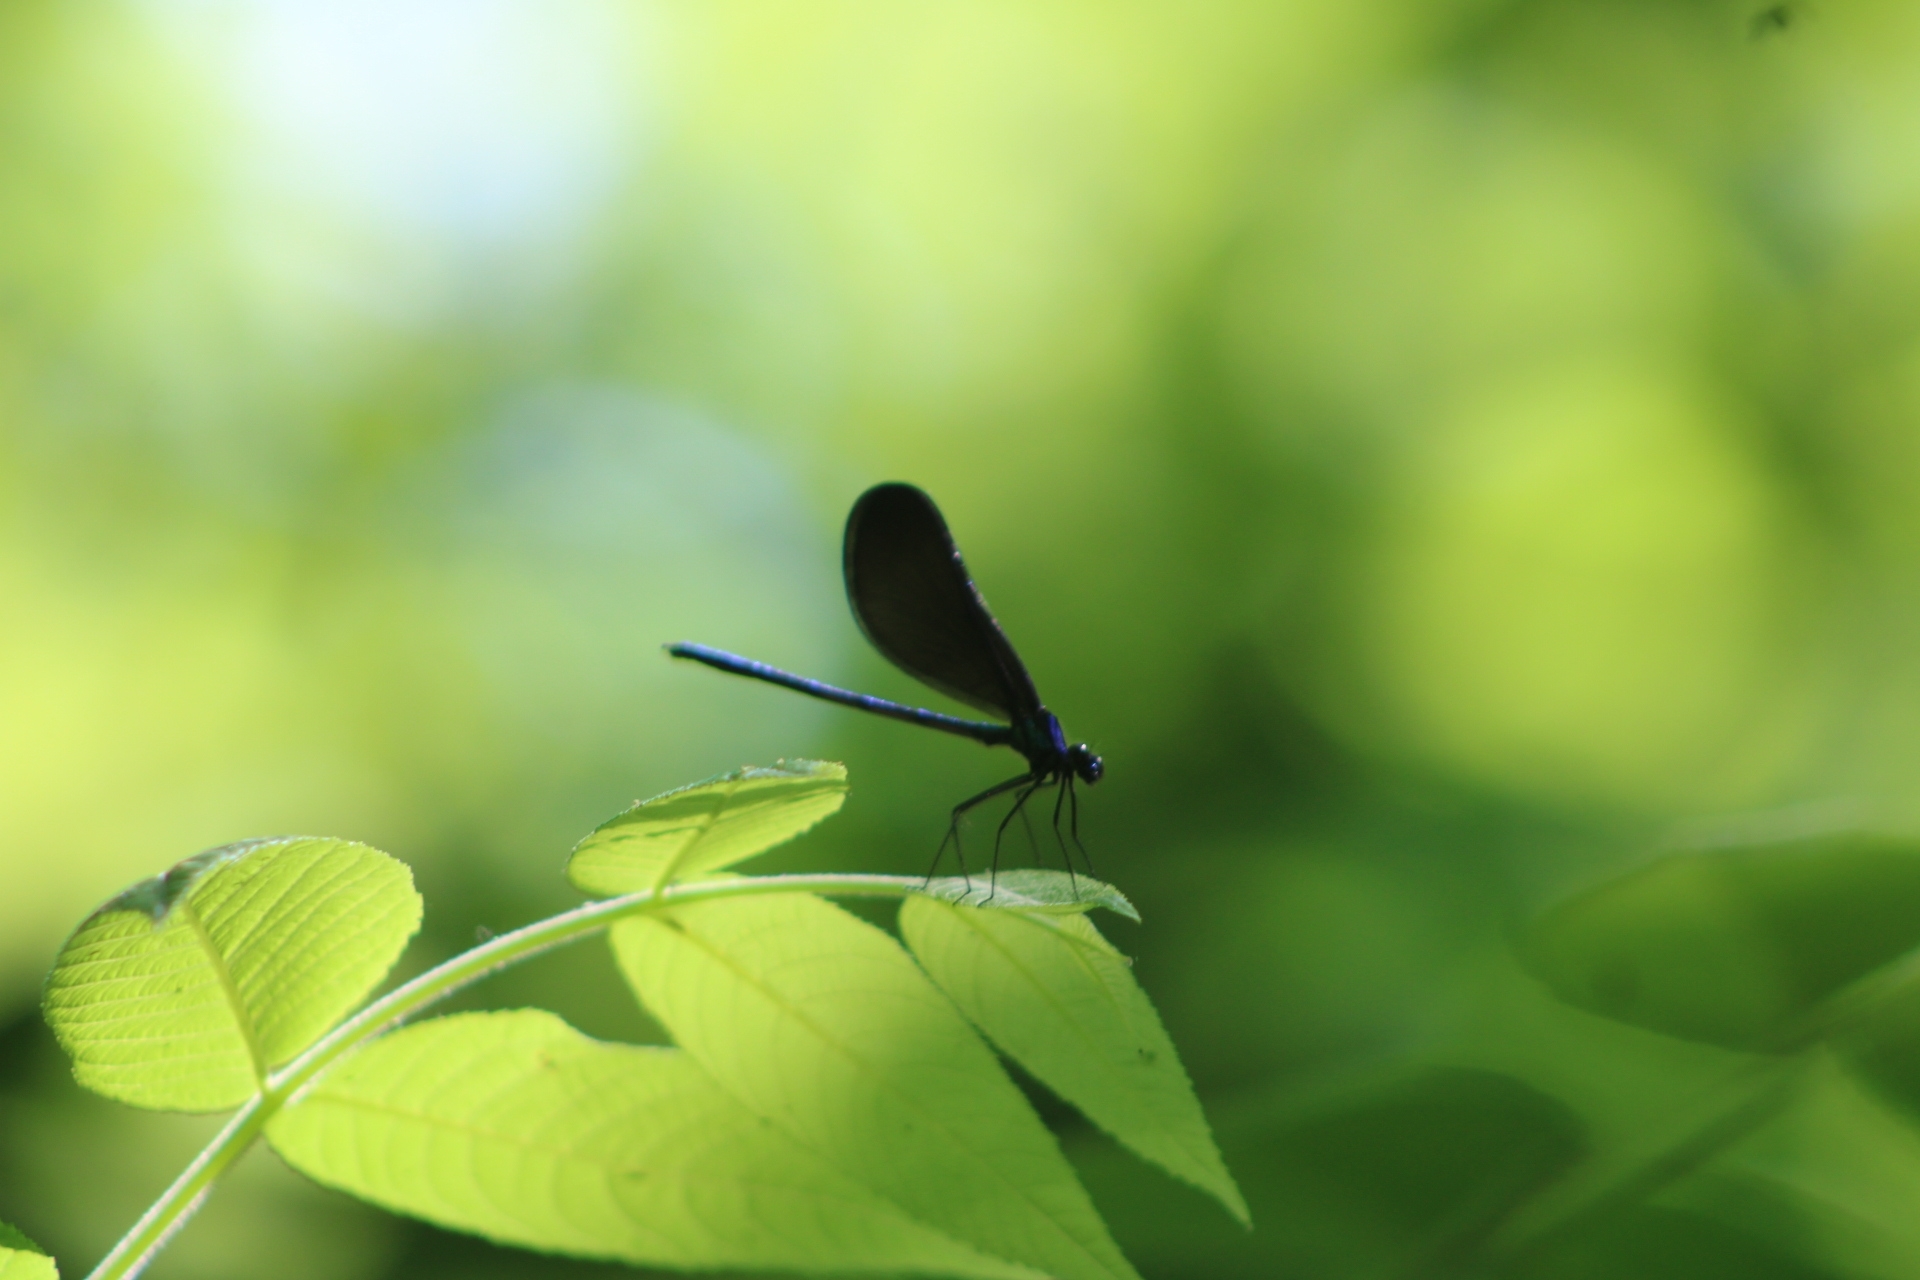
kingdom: Animalia
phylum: Arthropoda
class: Insecta
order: Odonata
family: Calopterygidae
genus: Calopteryx
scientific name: Calopteryx maculata
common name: Ebony jewelwing
